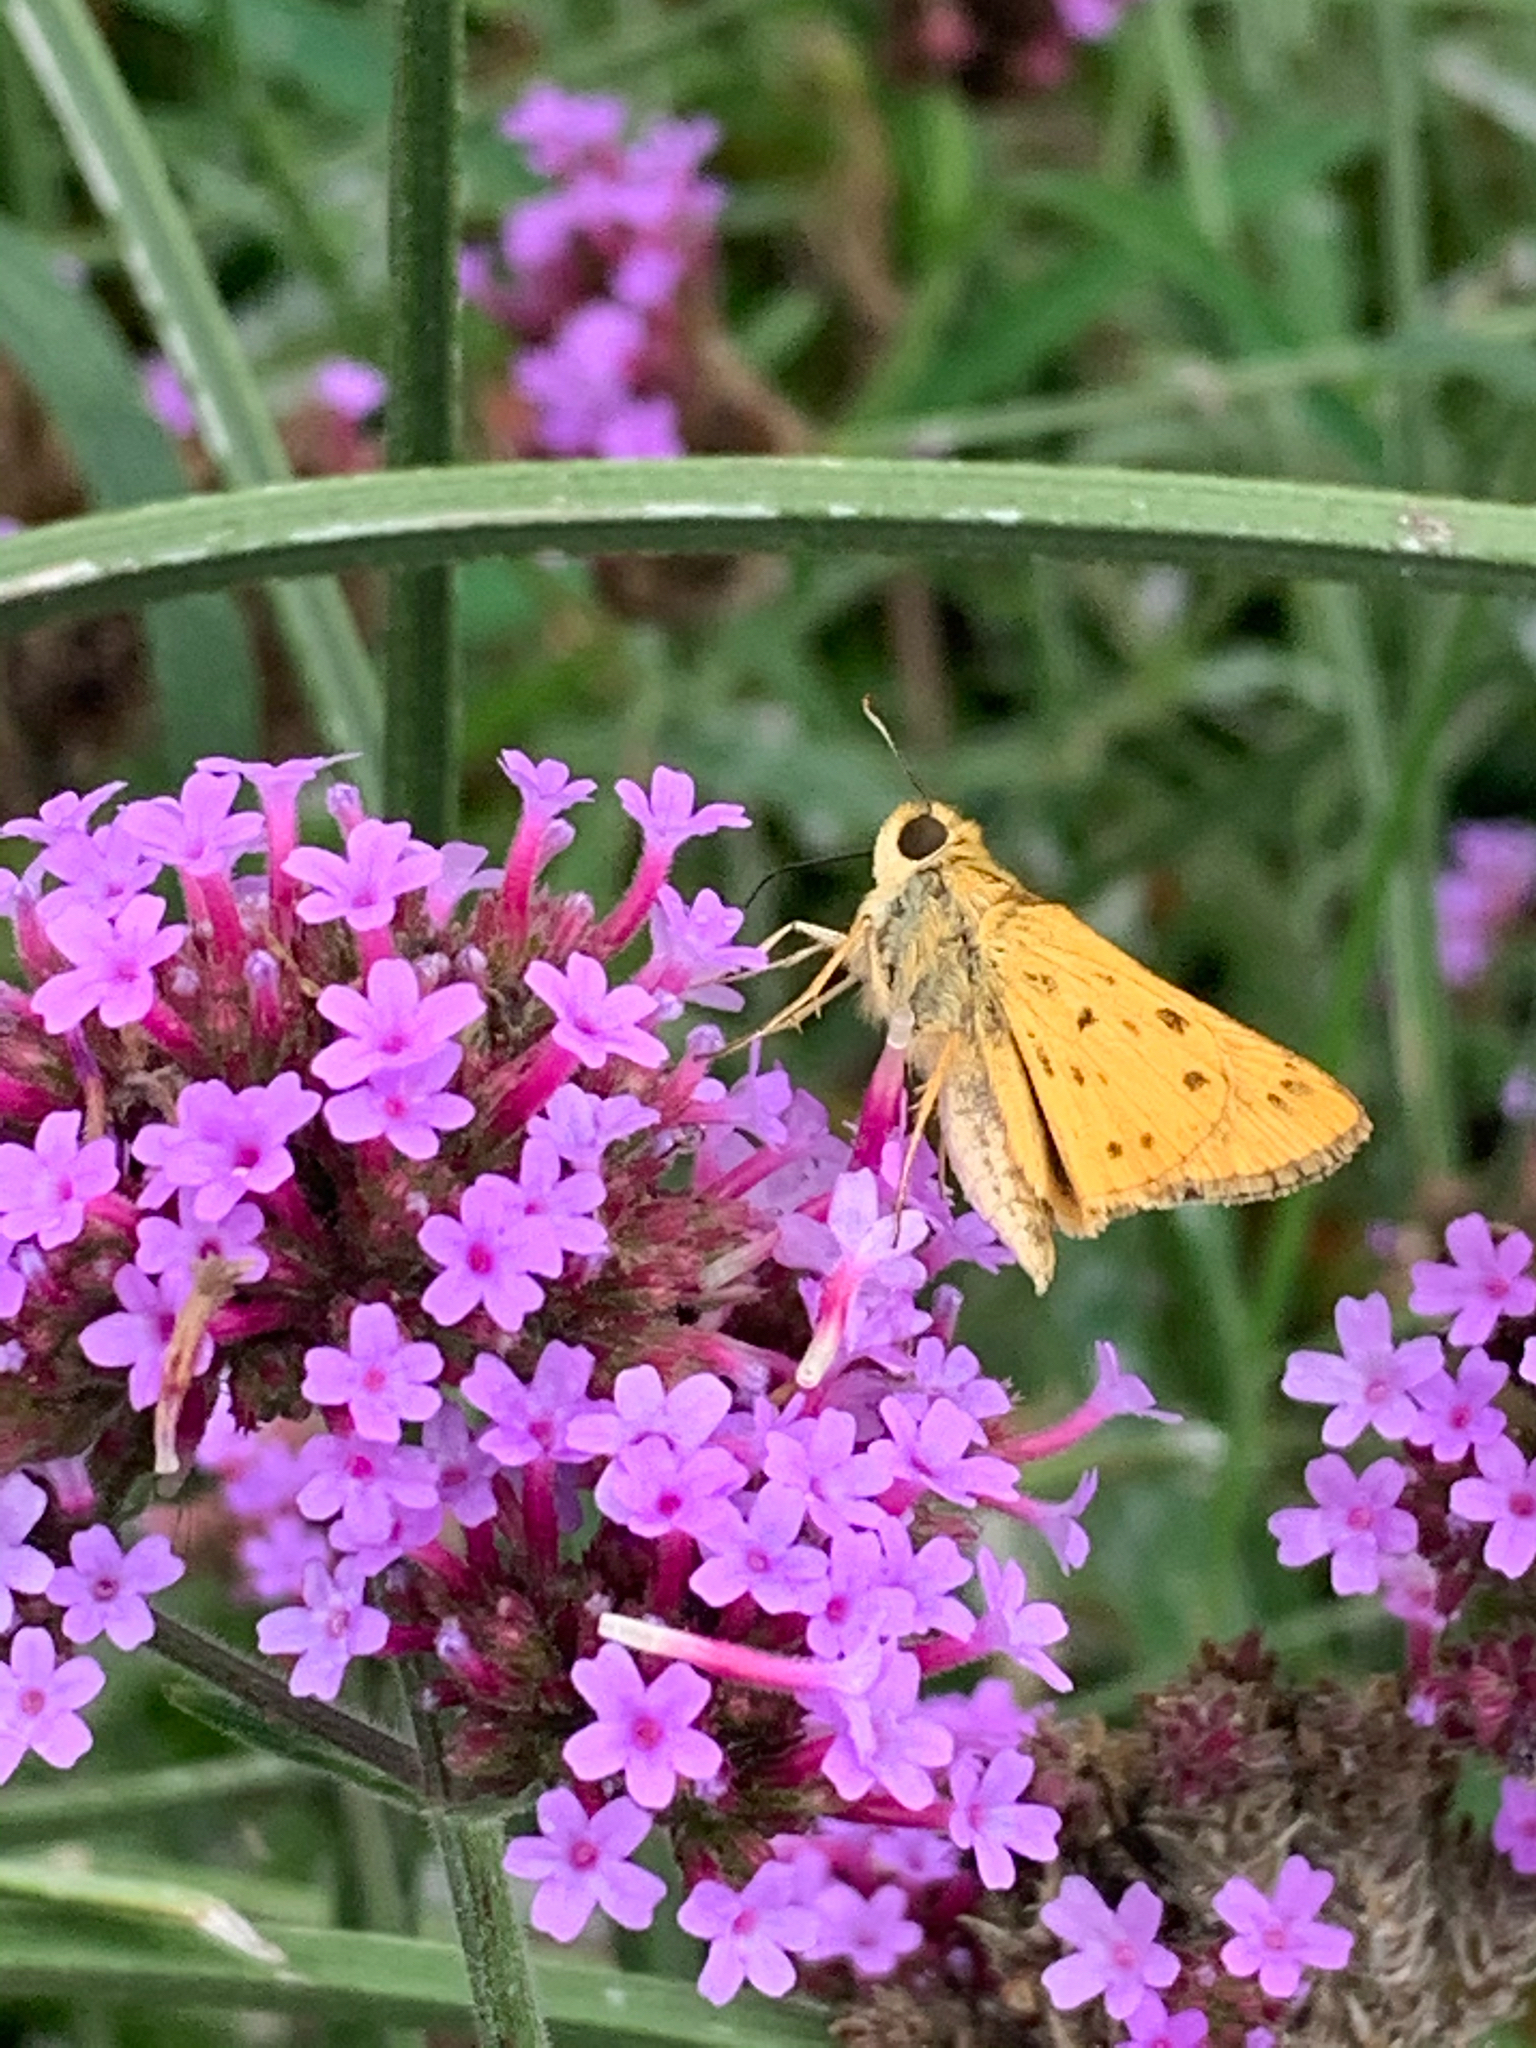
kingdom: Animalia
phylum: Arthropoda
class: Insecta
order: Lepidoptera
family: Hesperiidae
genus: Hylephila
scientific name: Hylephila phyleus
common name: Fiery skipper
